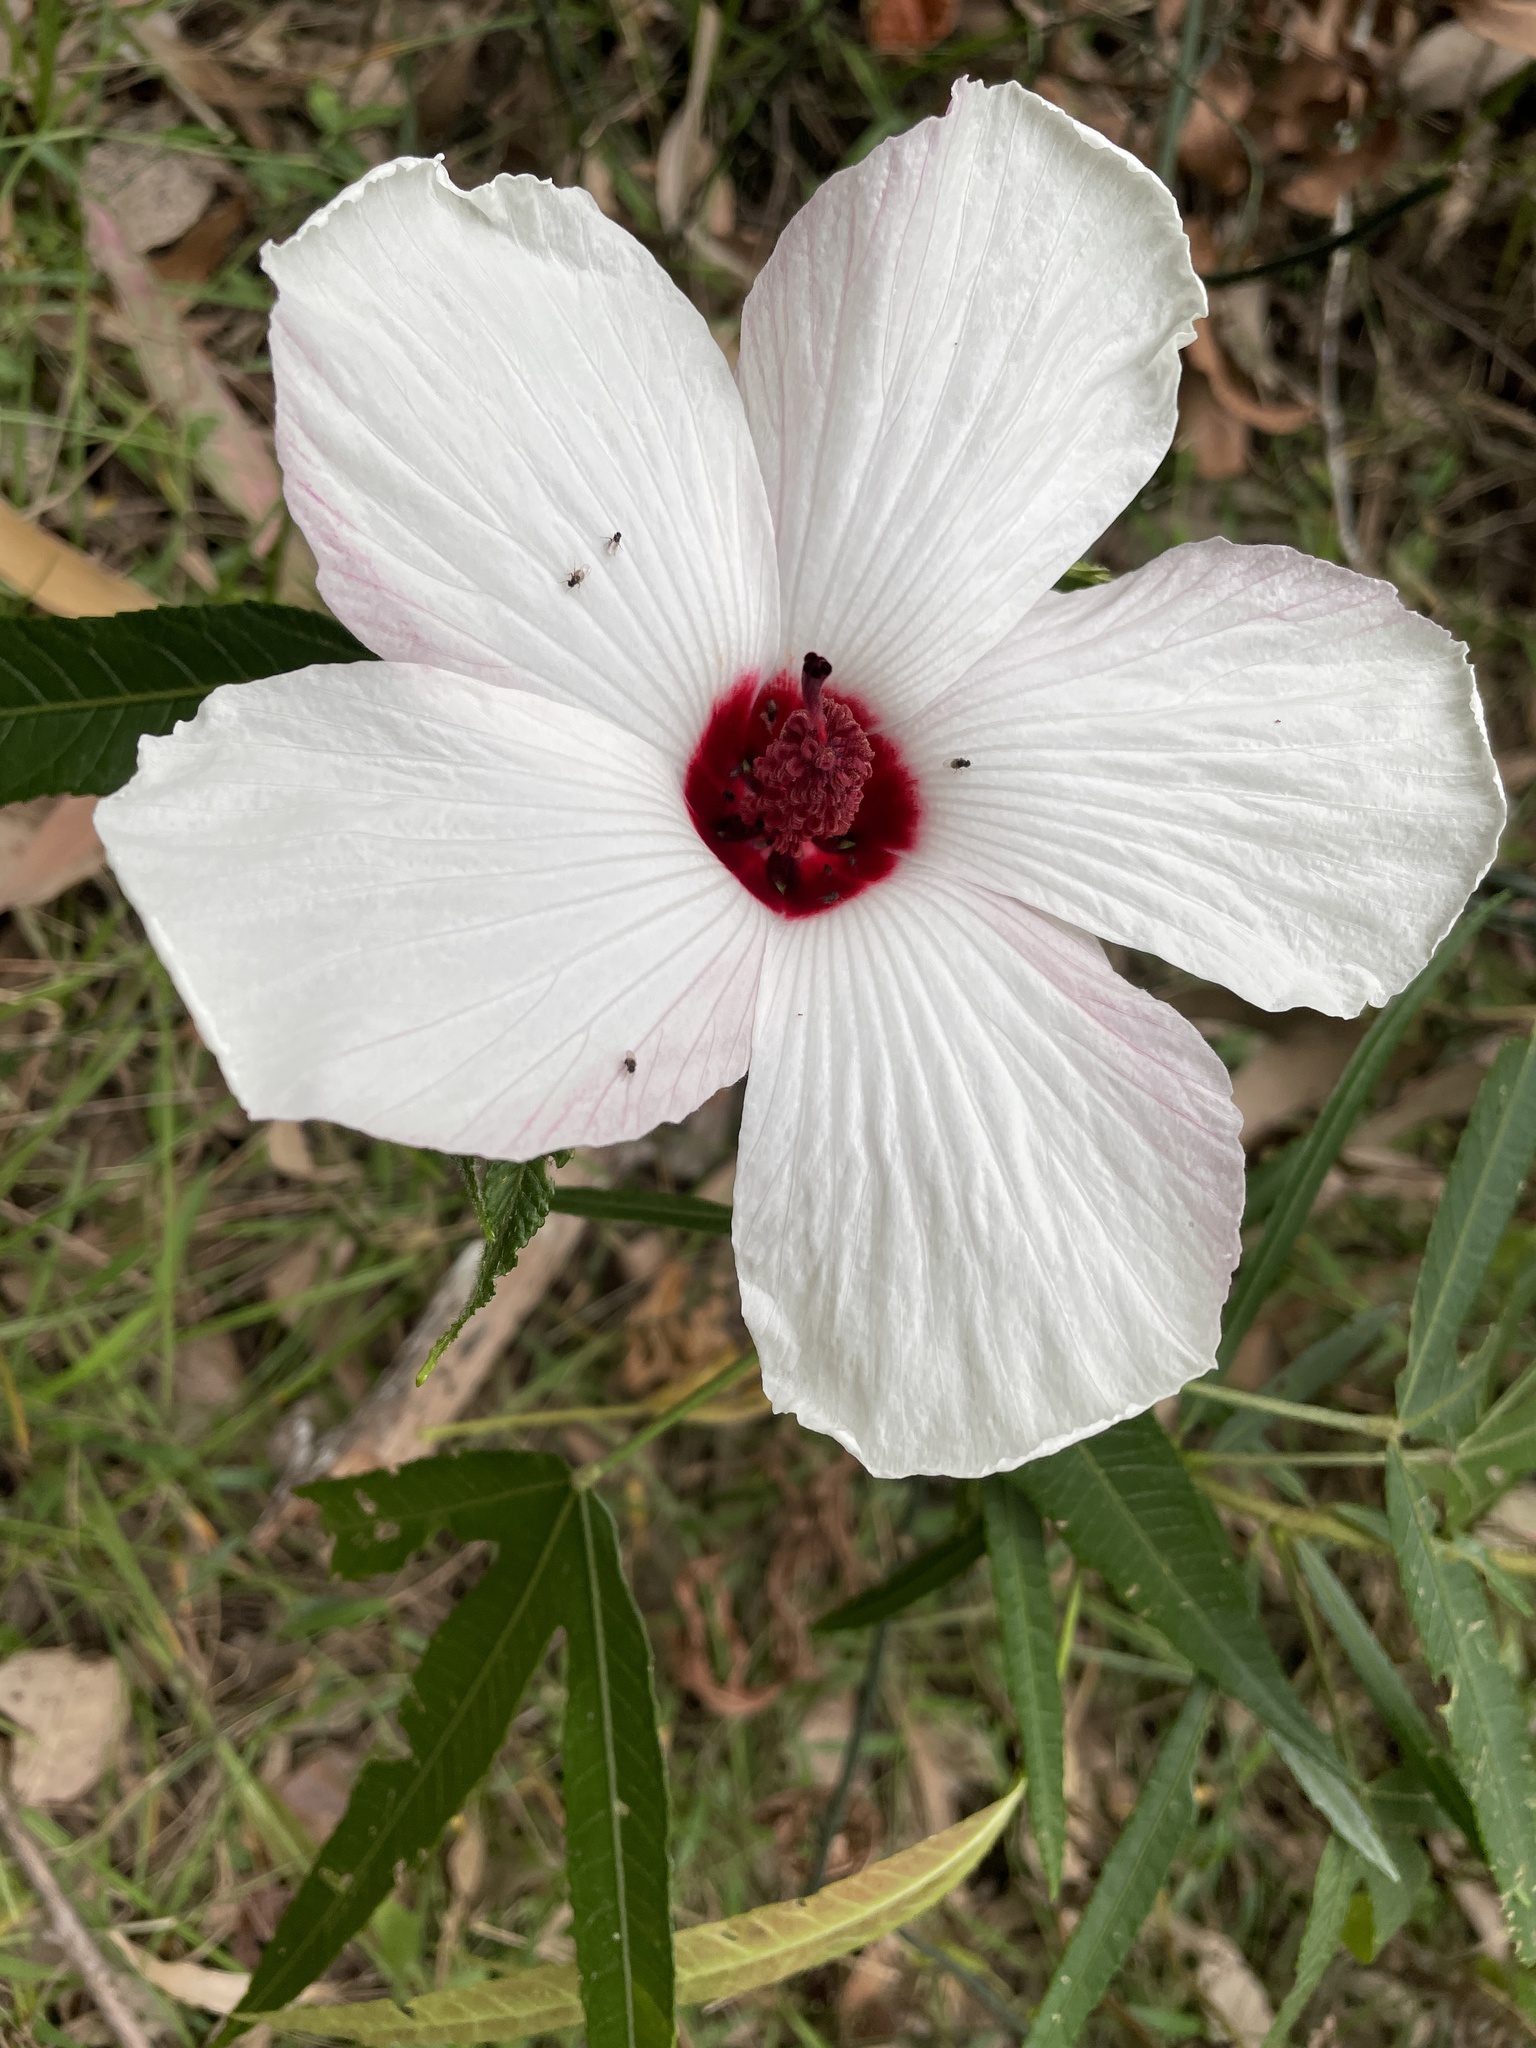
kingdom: Plantae
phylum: Tracheophyta
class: Magnoliopsida
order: Malvales
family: Malvaceae
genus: Hibiscus
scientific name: Hibiscus heterophyllus
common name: Queensland-sorrel
